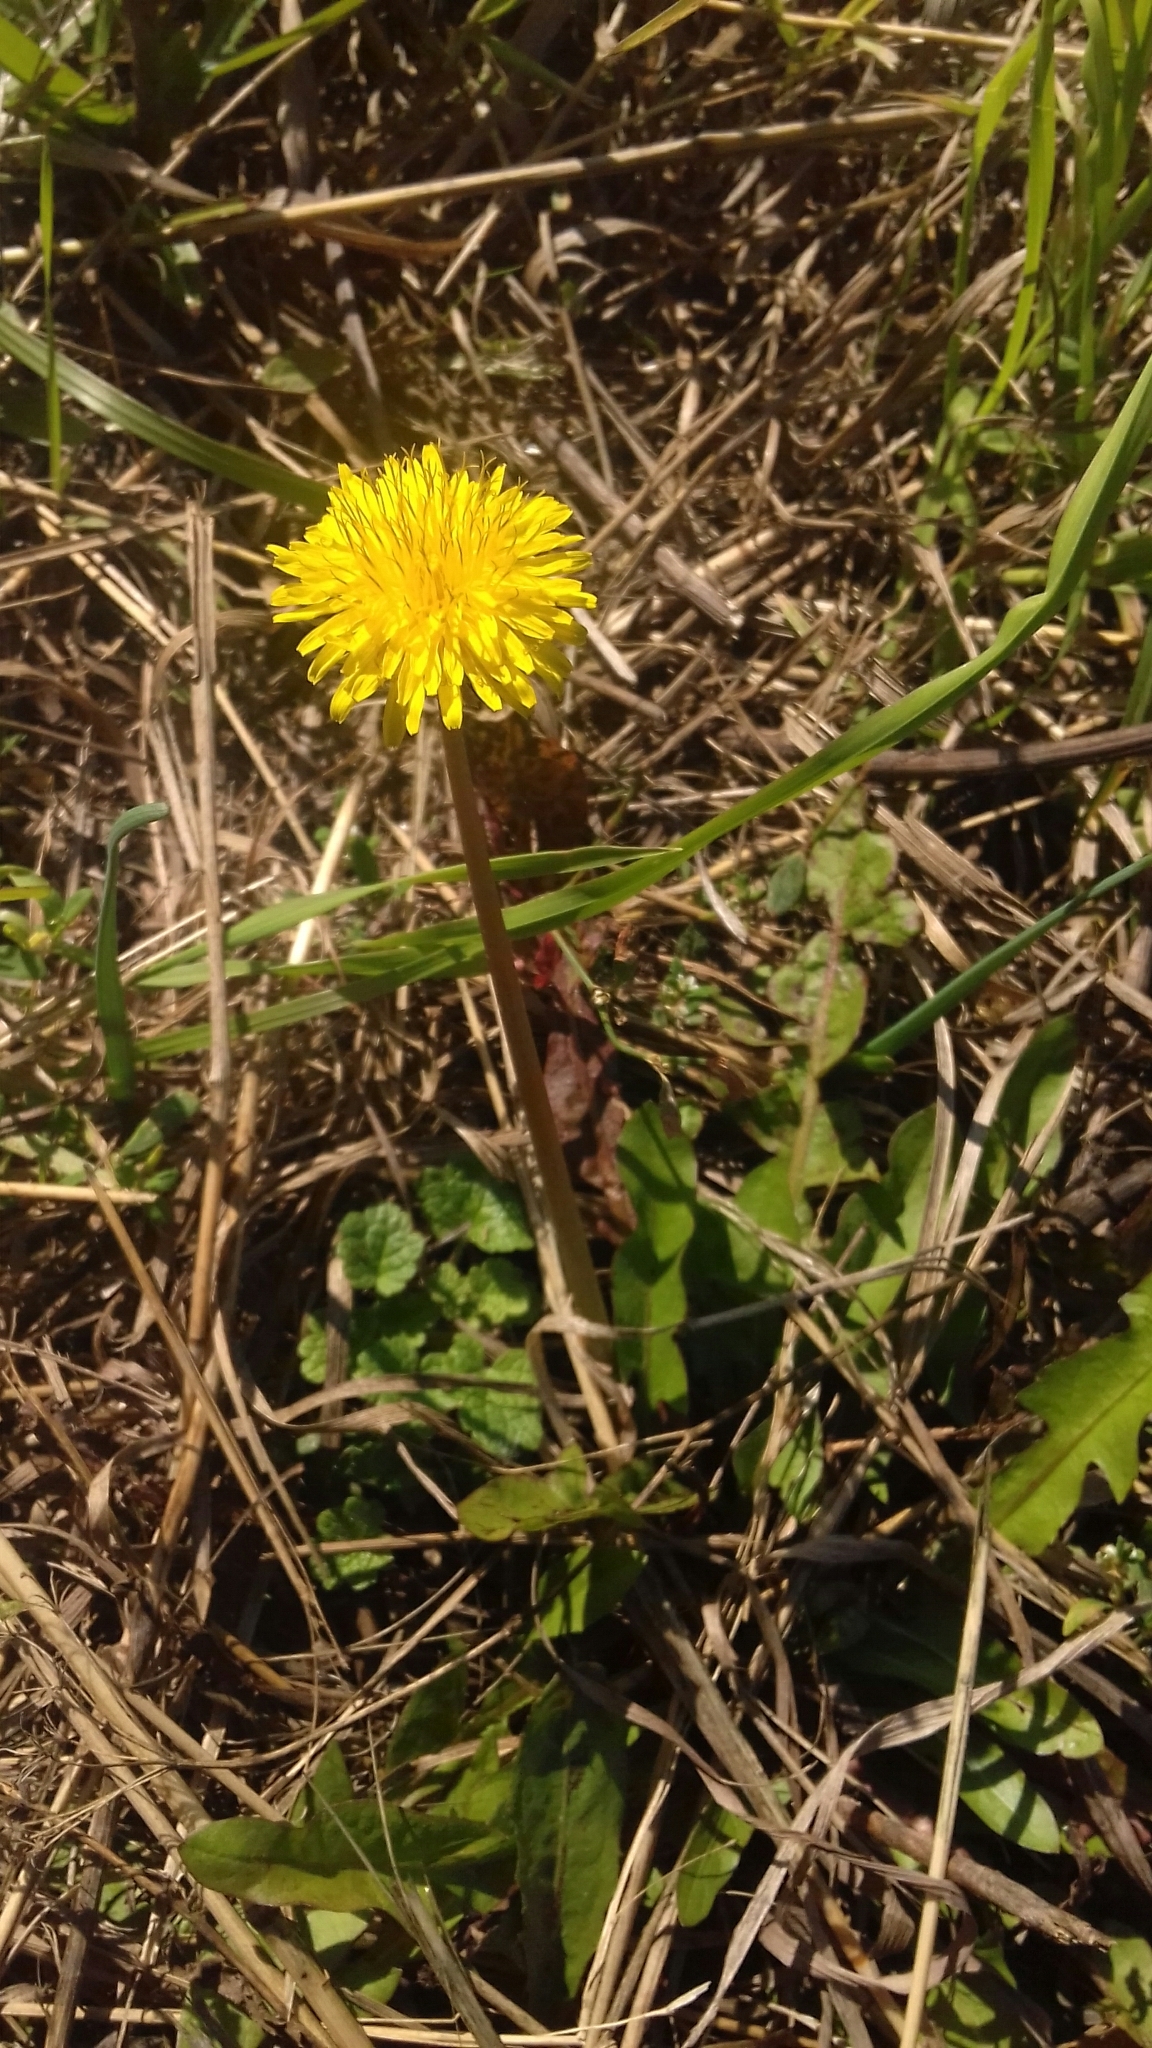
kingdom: Plantae
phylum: Tracheophyta
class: Magnoliopsida
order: Asterales
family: Asteraceae
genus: Taraxacum
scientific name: Taraxacum officinale
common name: Common dandelion
